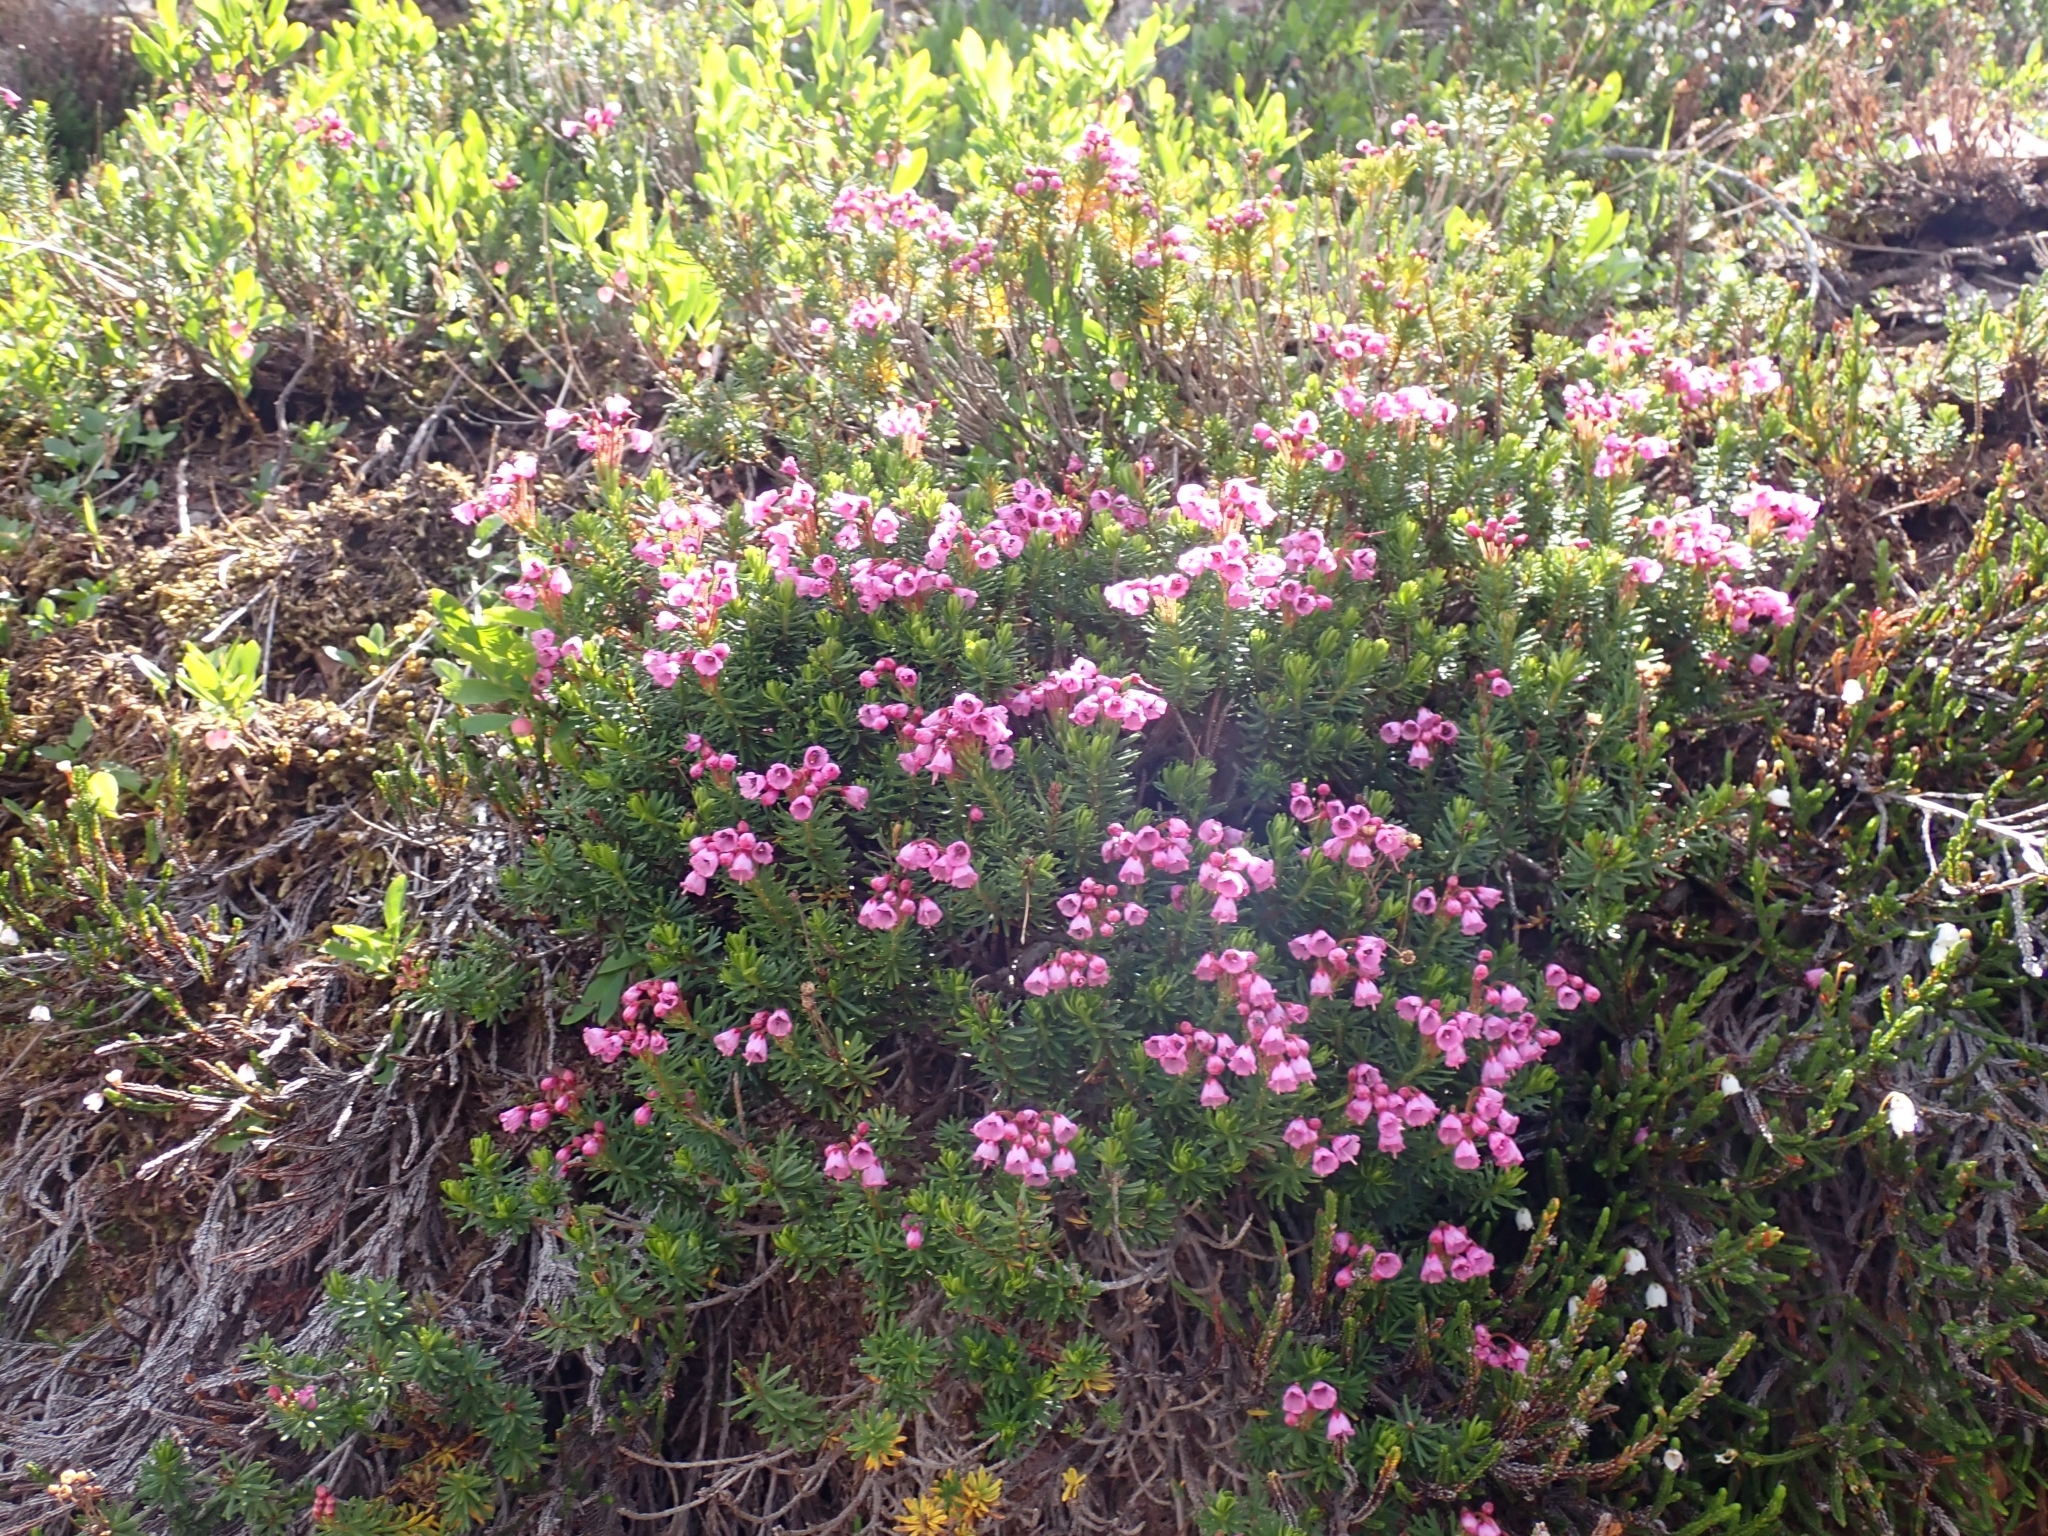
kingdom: Plantae
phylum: Tracheophyta
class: Magnoliopsida
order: Ericales
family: Ericaceae
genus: Phyllodoce
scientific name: Phyllodoce empetriformis
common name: Pink mountain heather
